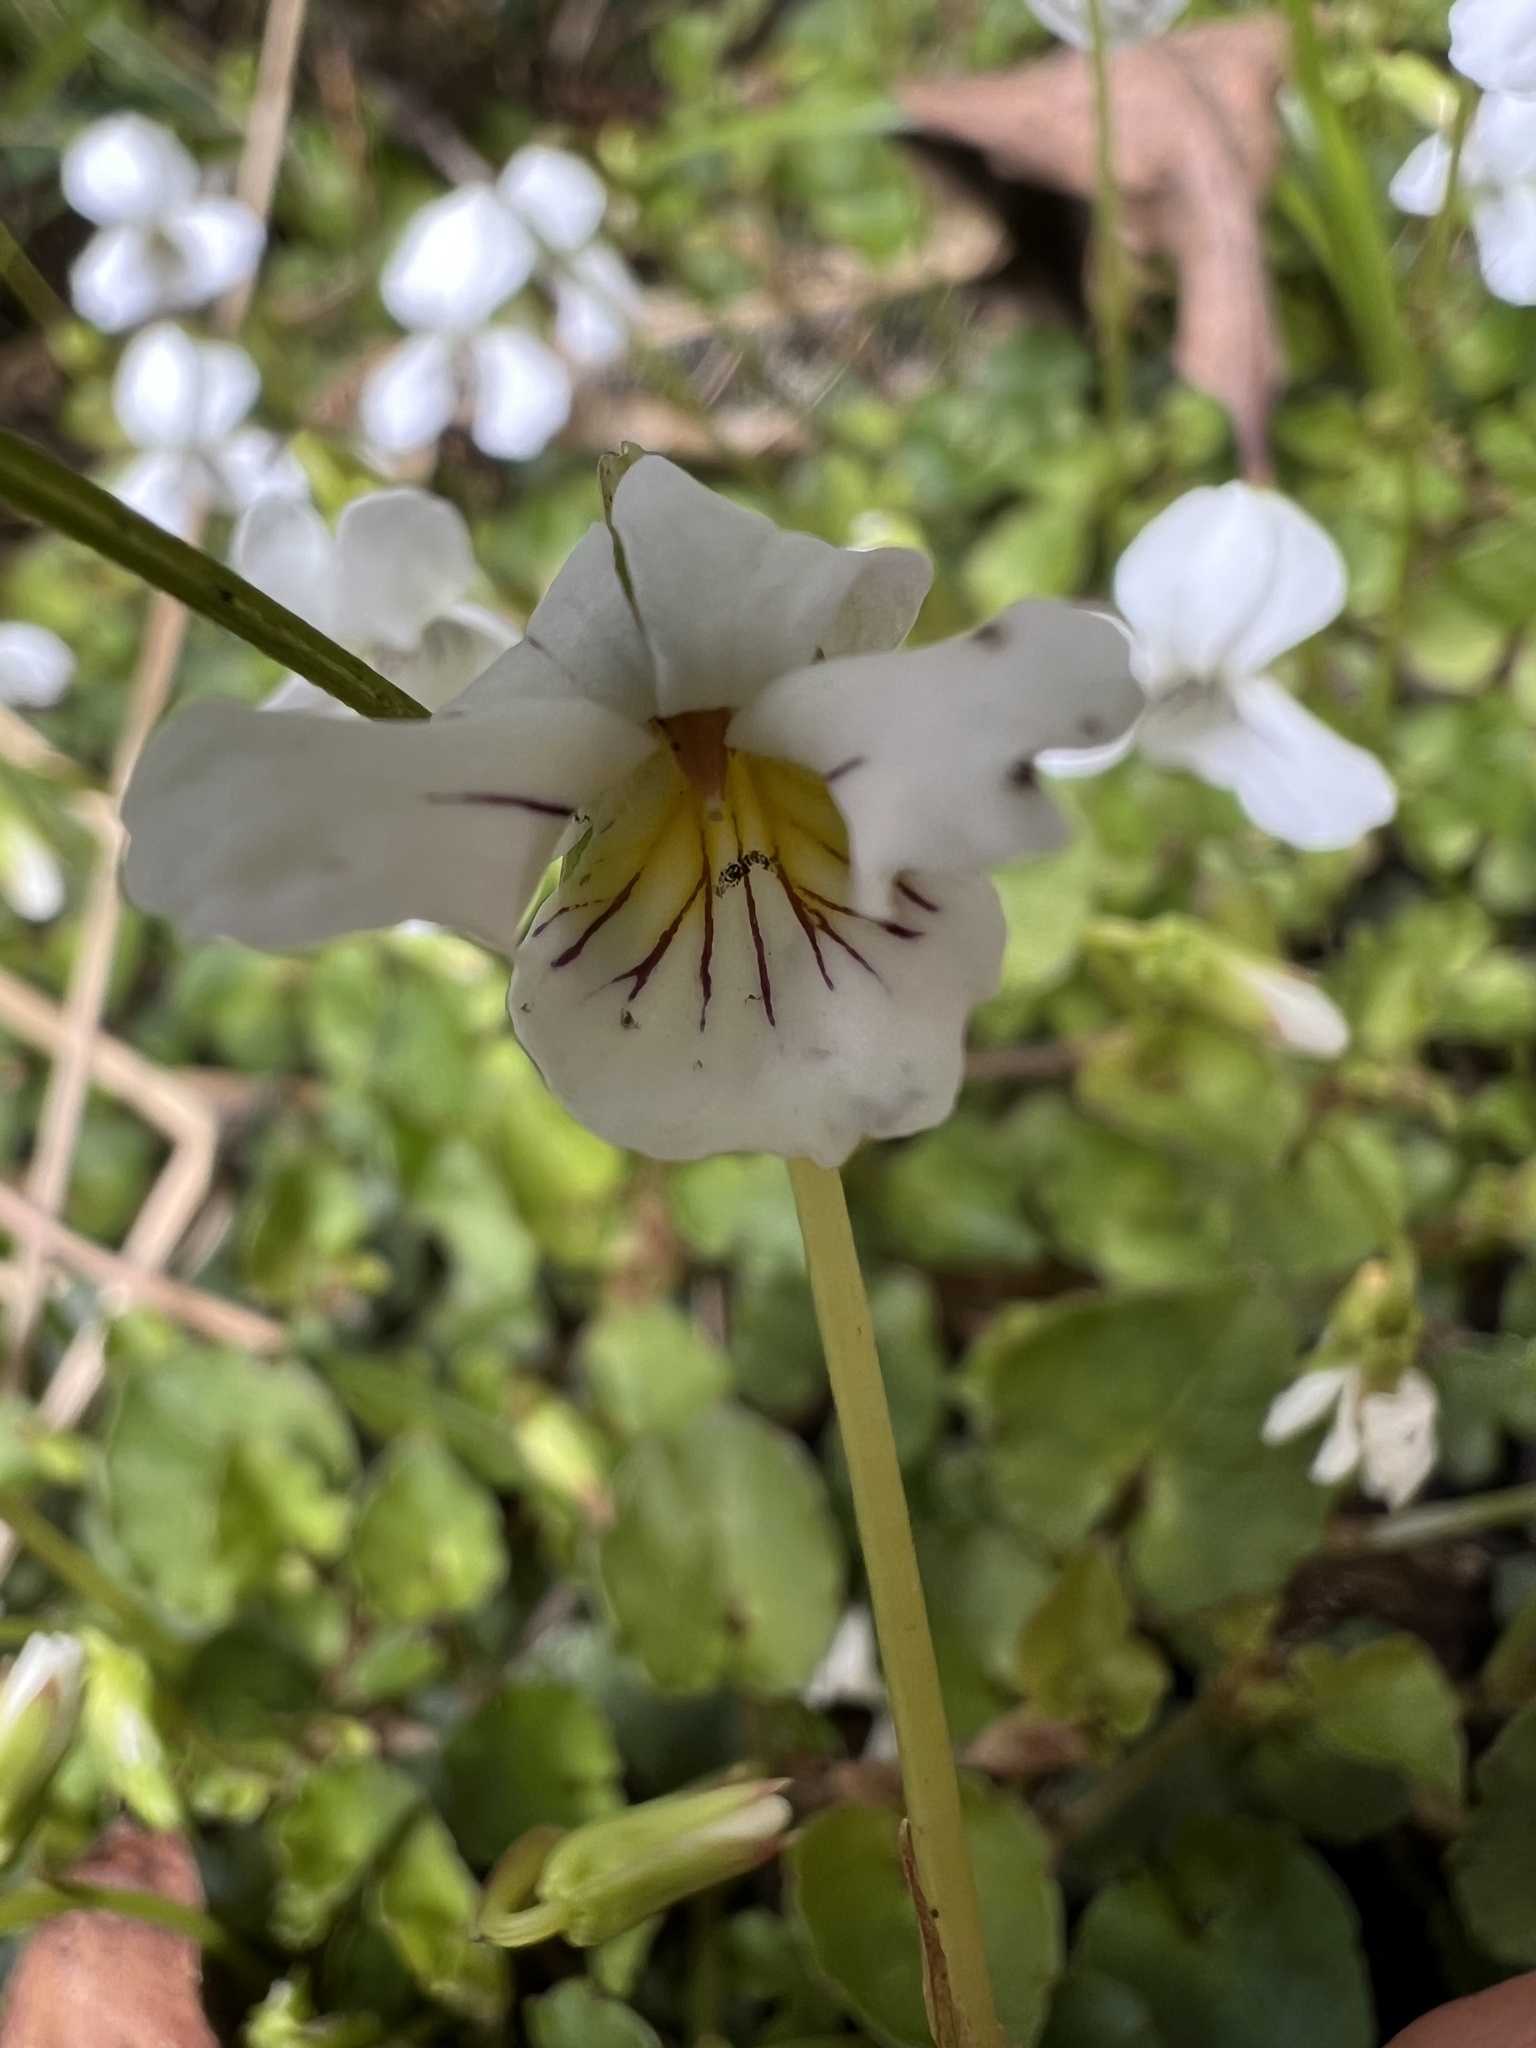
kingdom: Plantae
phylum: Tracheophyta
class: Magnoliopsida
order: Malpighiales
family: Violaceae
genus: Viola
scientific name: Viola filicaulis
